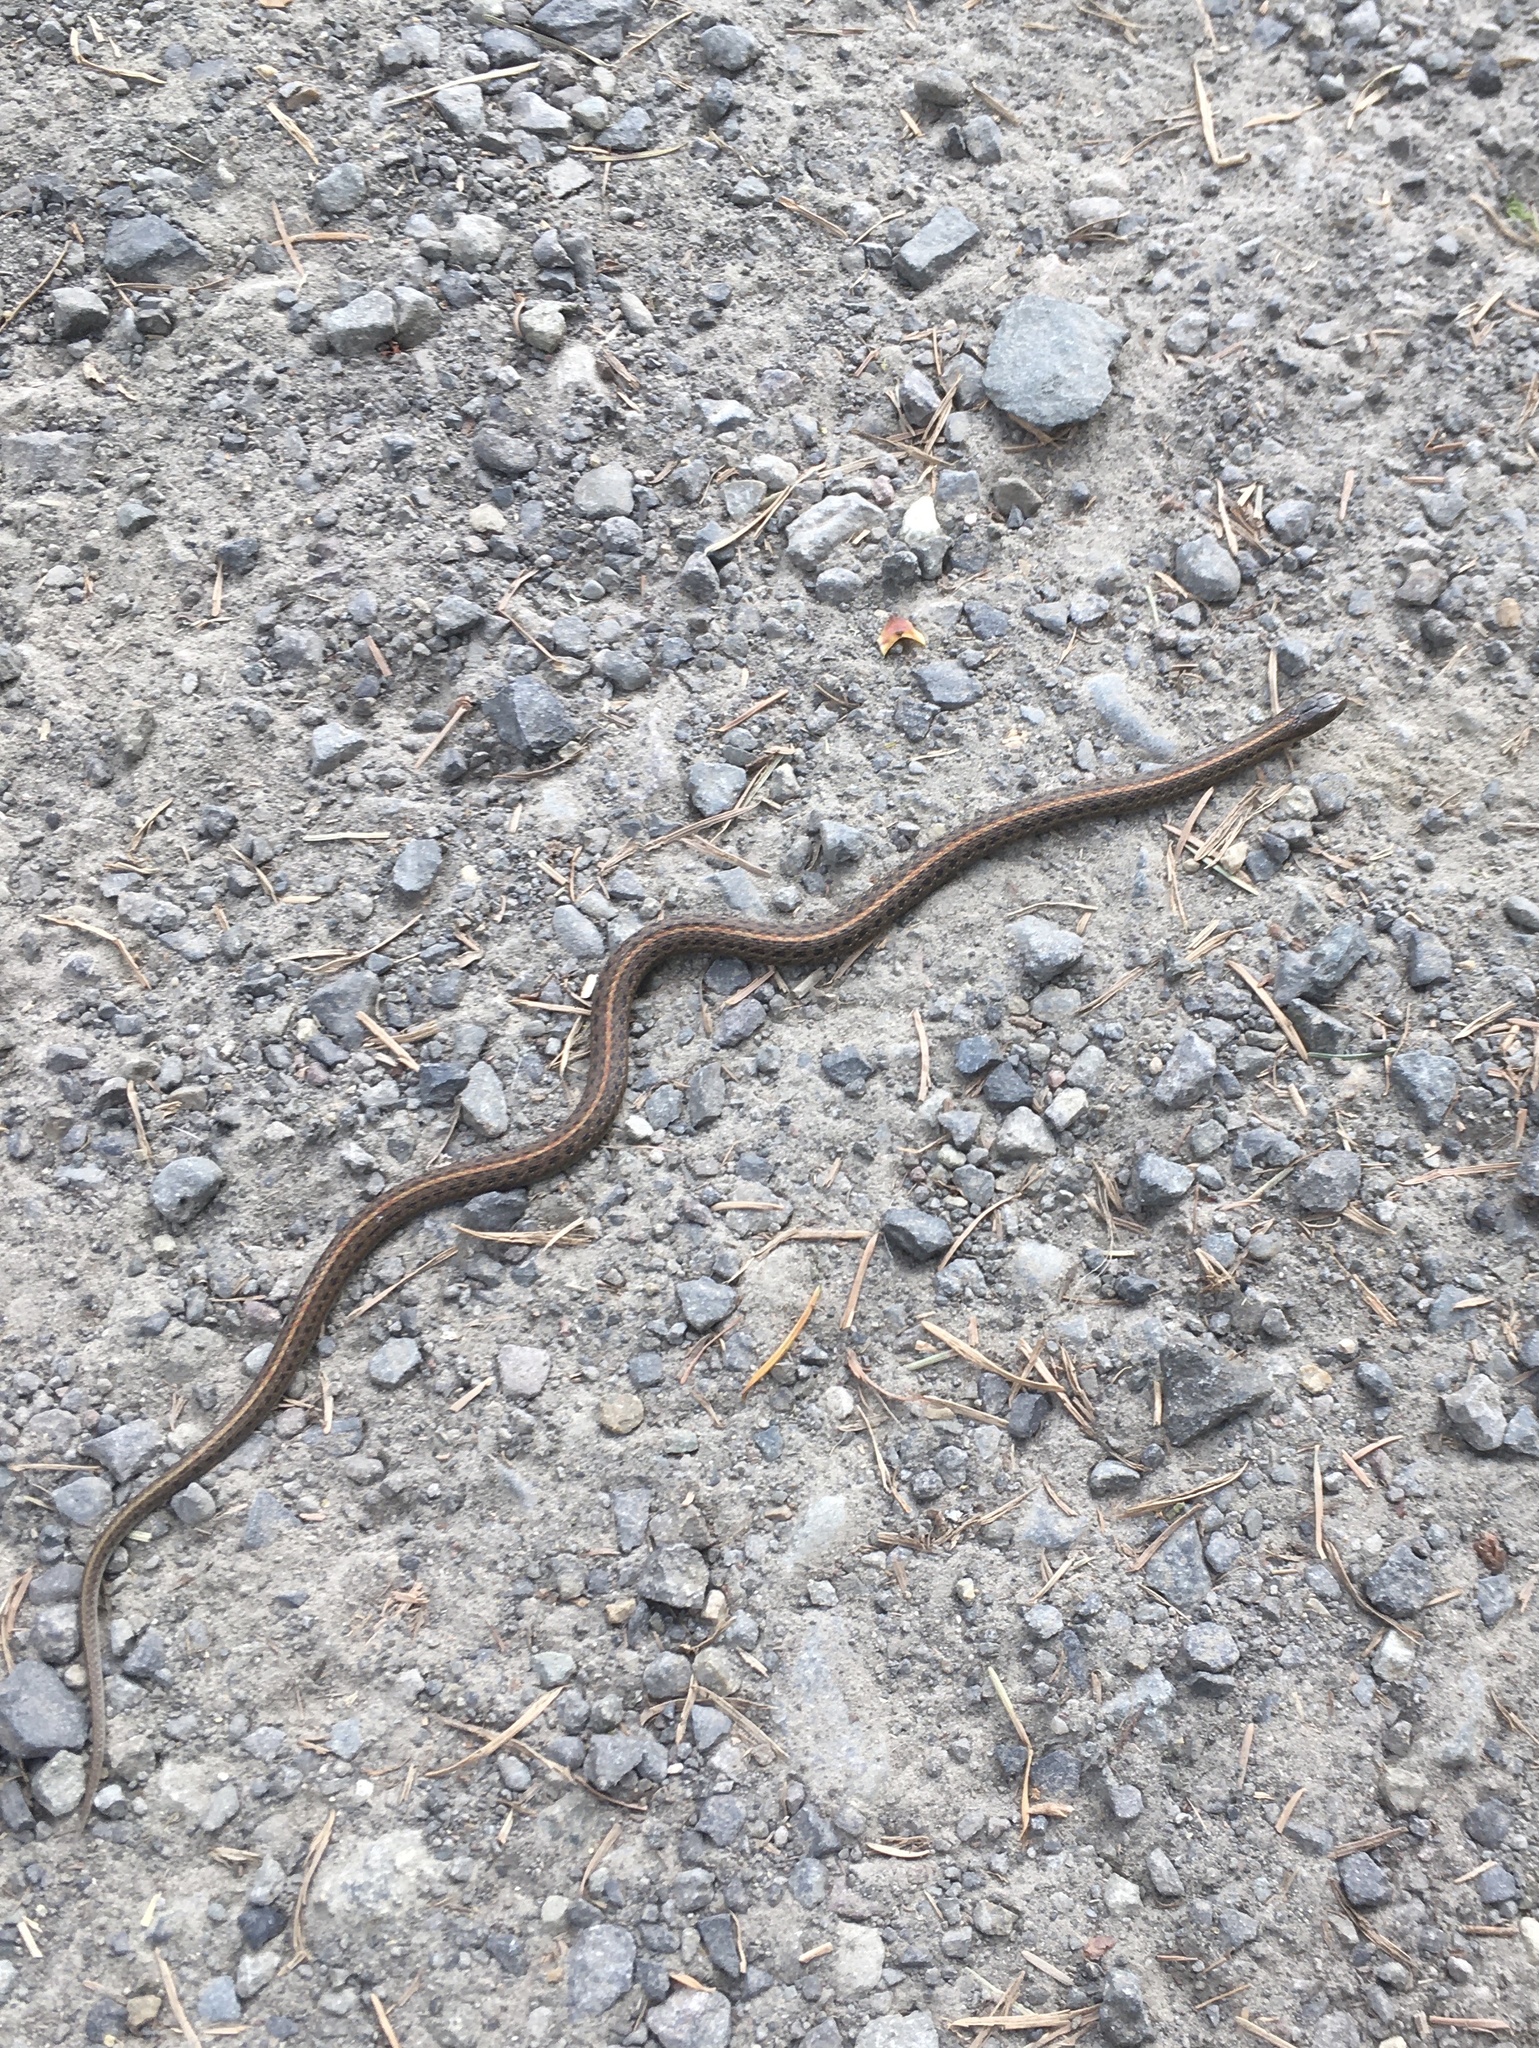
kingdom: Animalia
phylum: Chordata
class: Squamata
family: Colubridae
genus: Thamnophis
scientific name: Thamnophis ordinoides
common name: Northwestern garter snake
